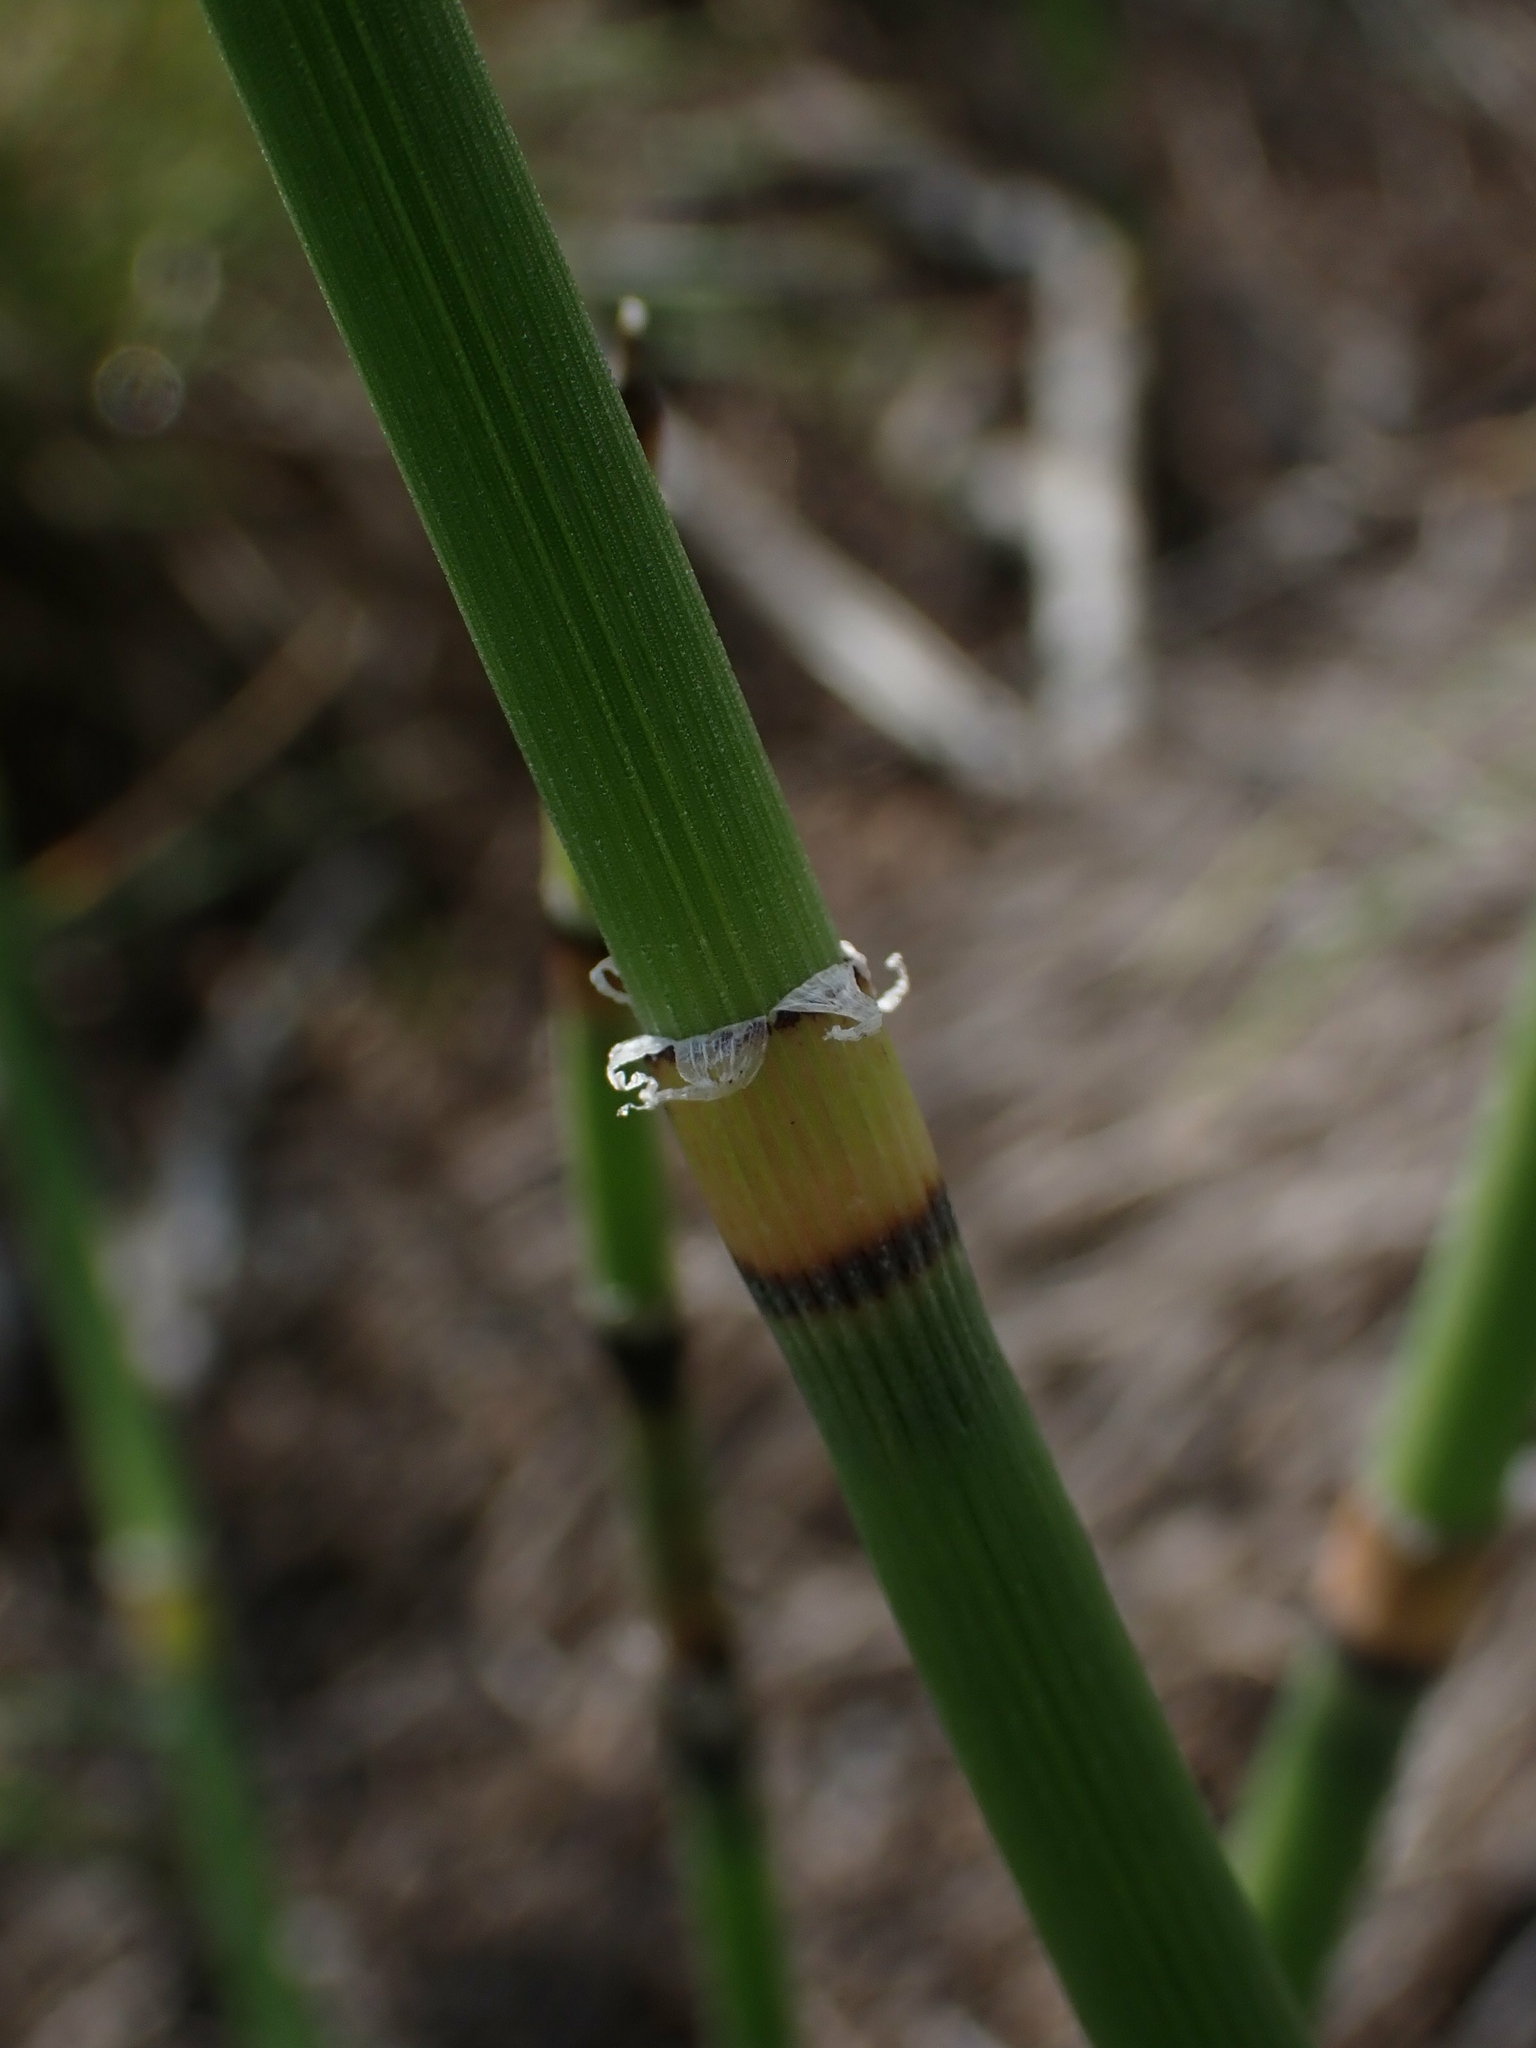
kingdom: Plantae
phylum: Tracheophyta
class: Polypodiopsida
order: Equisetales
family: Equisetaceae
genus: Equisetum
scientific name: Equisetum praealtum
